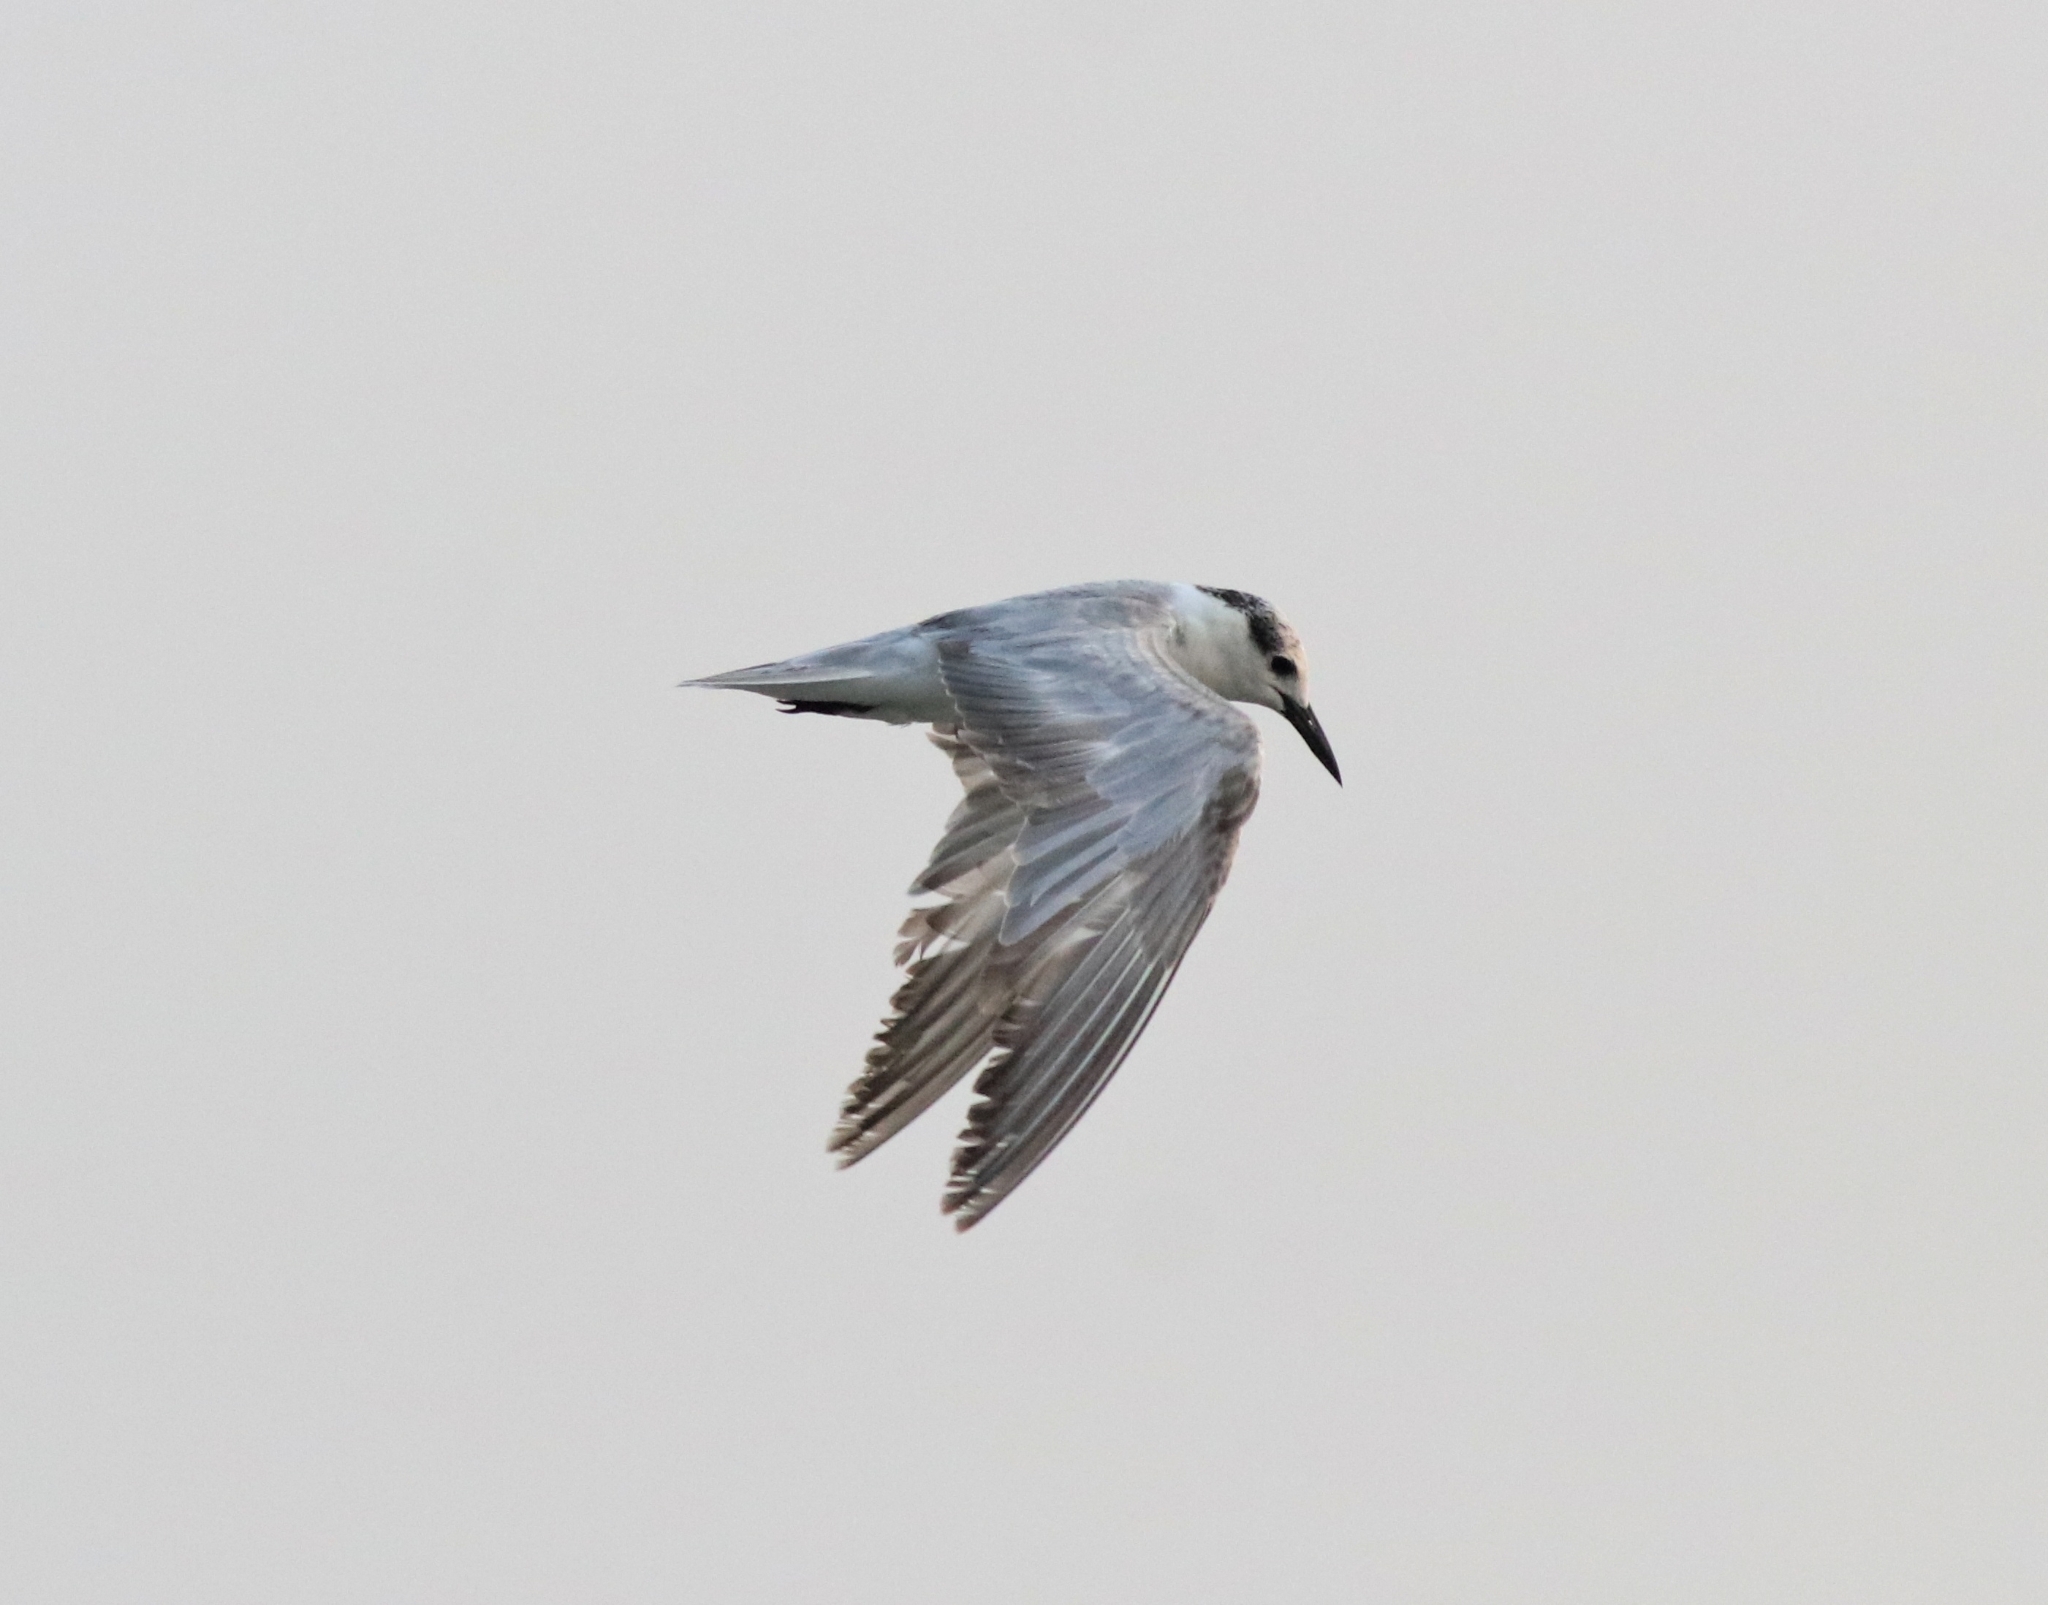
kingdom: Animalia
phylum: Chordata
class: Aves
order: Charadriiformes
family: Laridae
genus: Chlidonias
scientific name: Chlidonias hybrida
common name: Whiskered tern
